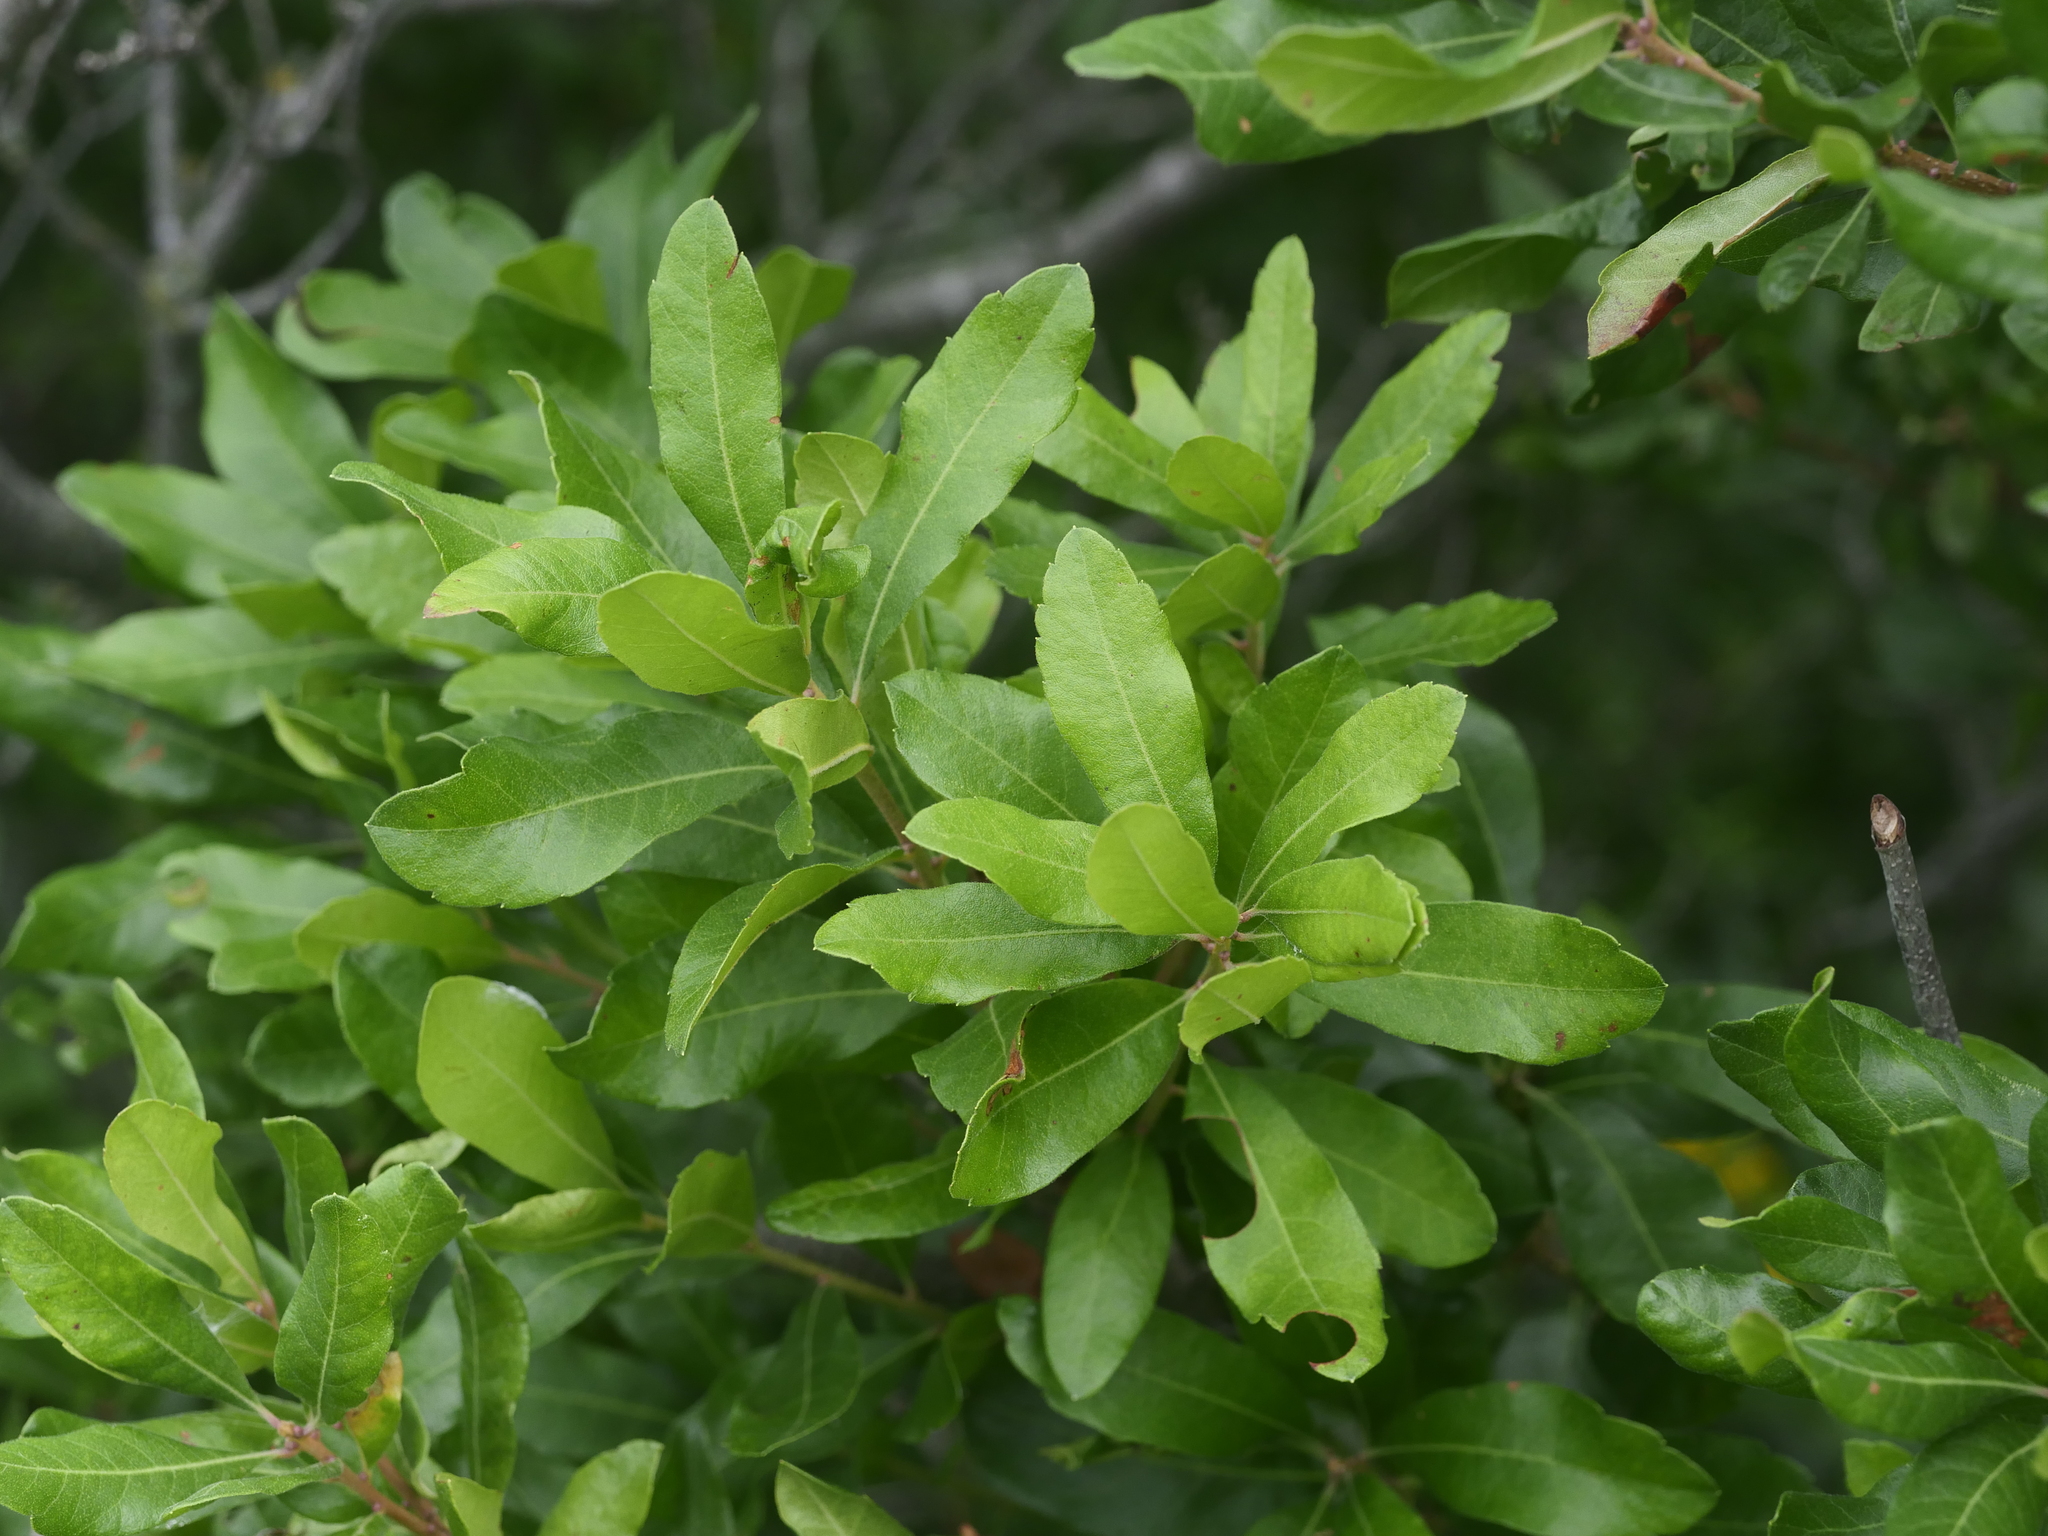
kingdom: Plantae
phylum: Tracheophyta
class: Magnoliopsida
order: Fagales
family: Myricaceae
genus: Morella
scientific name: Morella pensylvanica
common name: Northern bayberry
